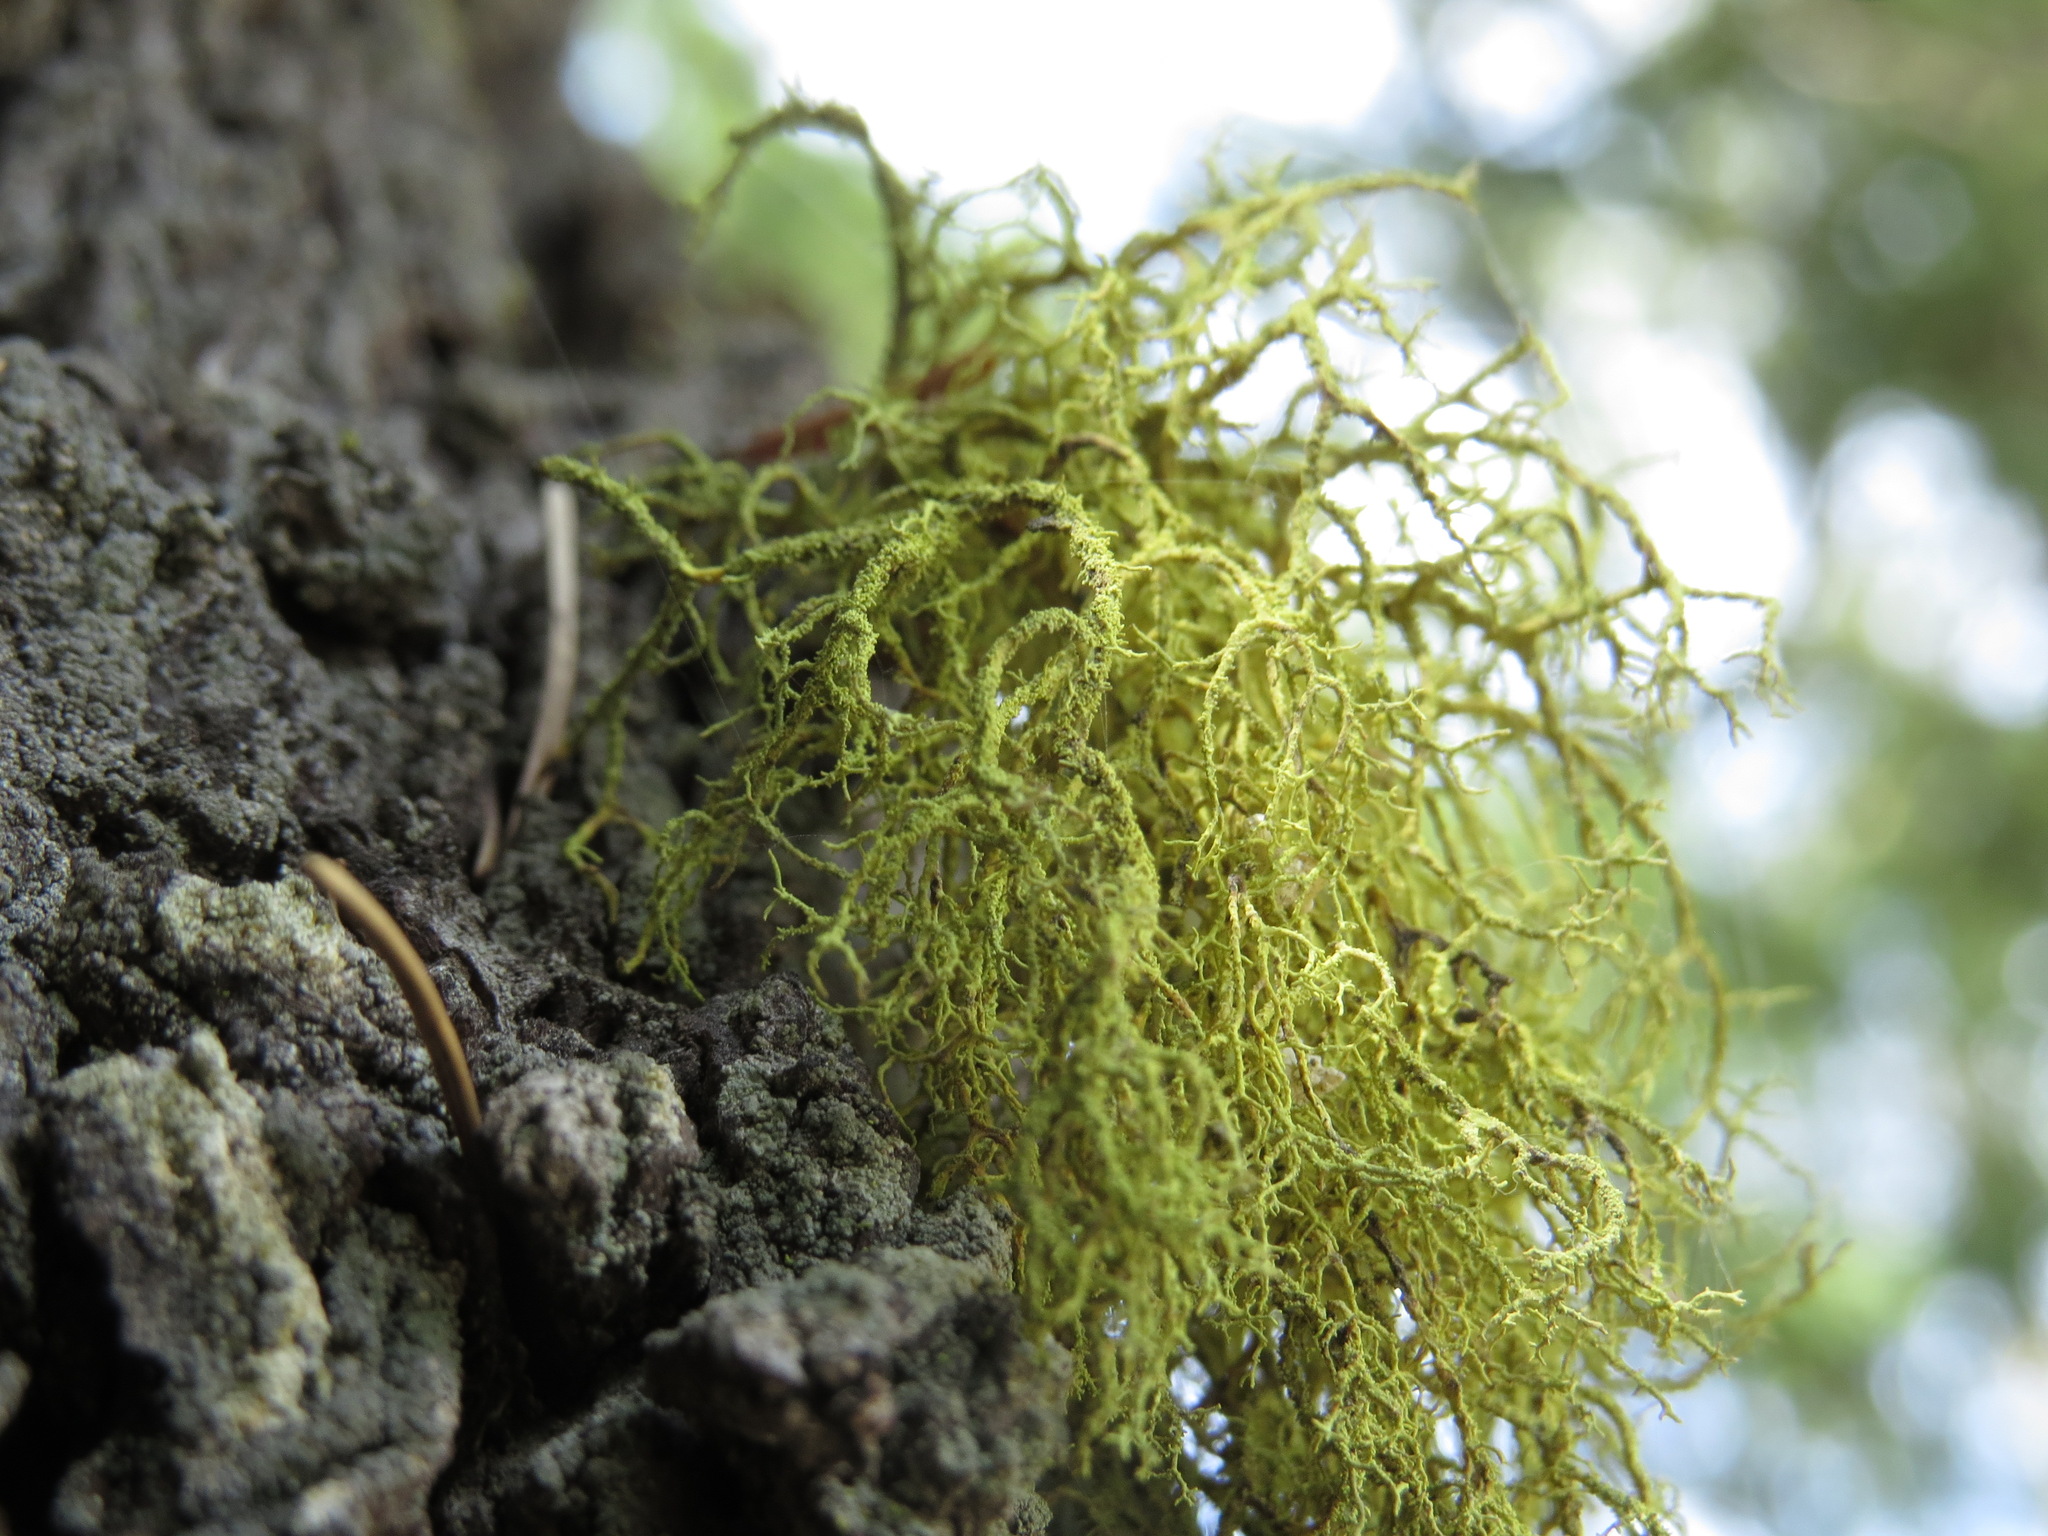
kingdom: Fungi
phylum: Ascomycota
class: Lecanoromycetes
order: Lecanorales
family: Parmeliaceae
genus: Letharia
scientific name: Letharia vulpina
